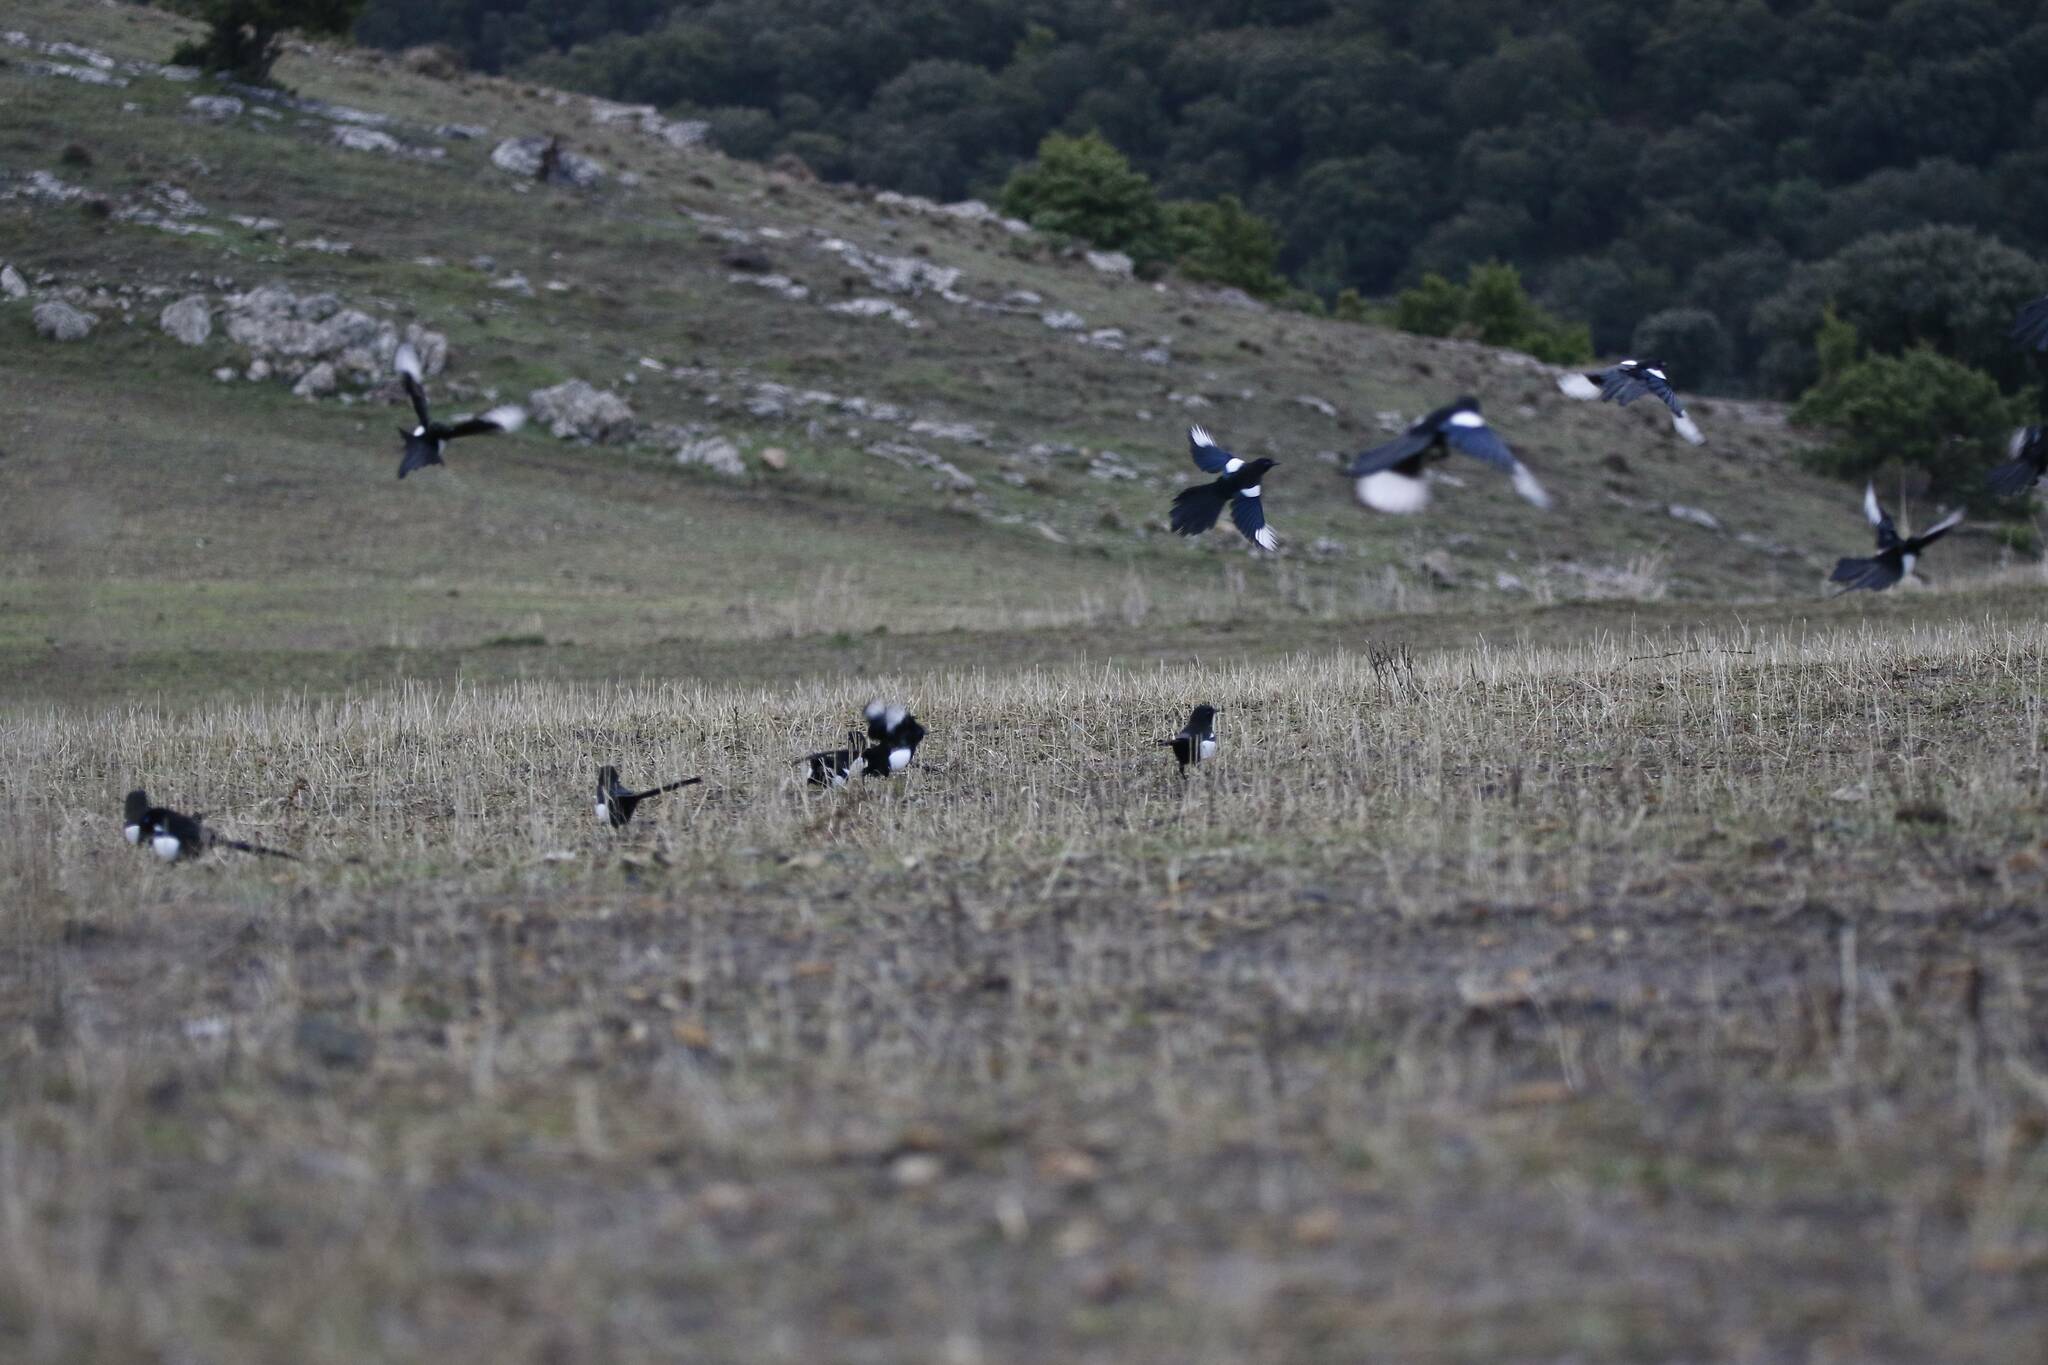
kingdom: Animalia
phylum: Chordata
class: Aves
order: Passeriformes
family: Corvidae
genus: Pica
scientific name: Pica mauritanica
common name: Maghreb magpie
